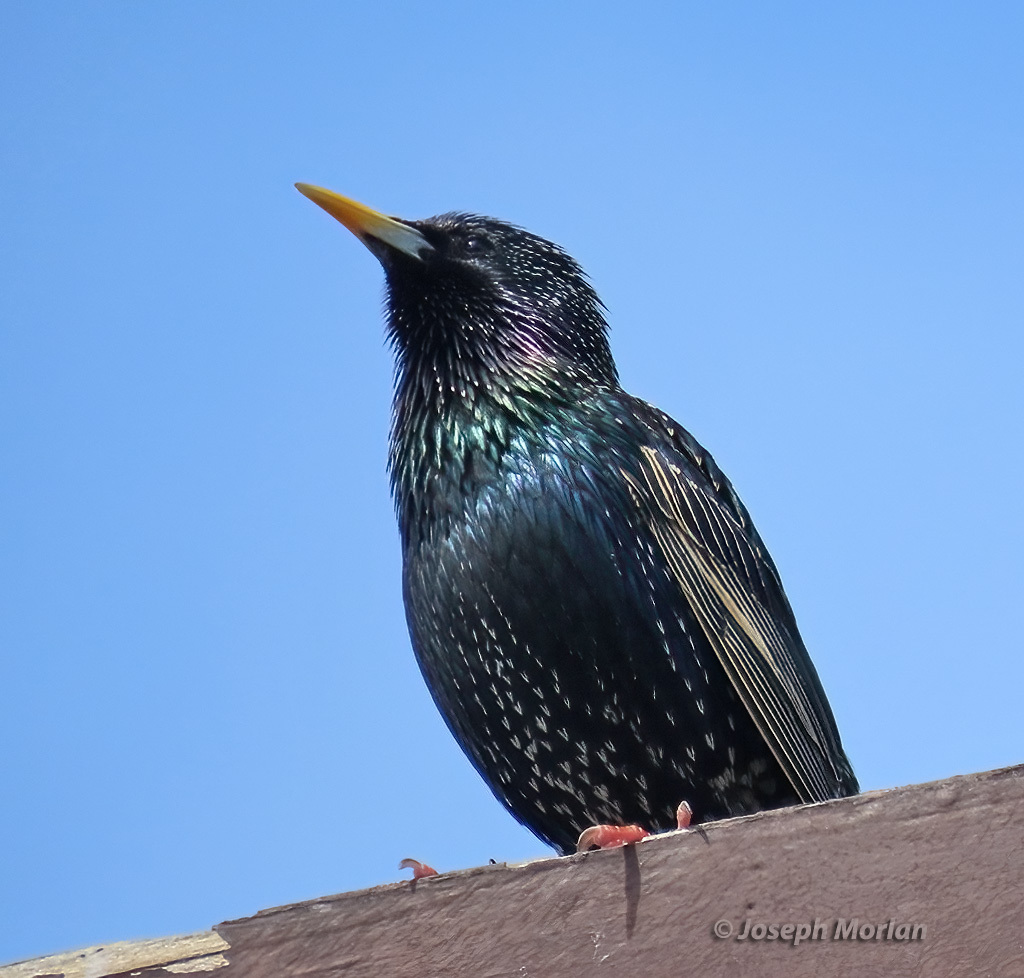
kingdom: Animalia
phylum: Chordata
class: Aves
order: Passeriformes
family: Sturnidae
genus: Sturnus
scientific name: Sturnus vulgaris
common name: Common starling
